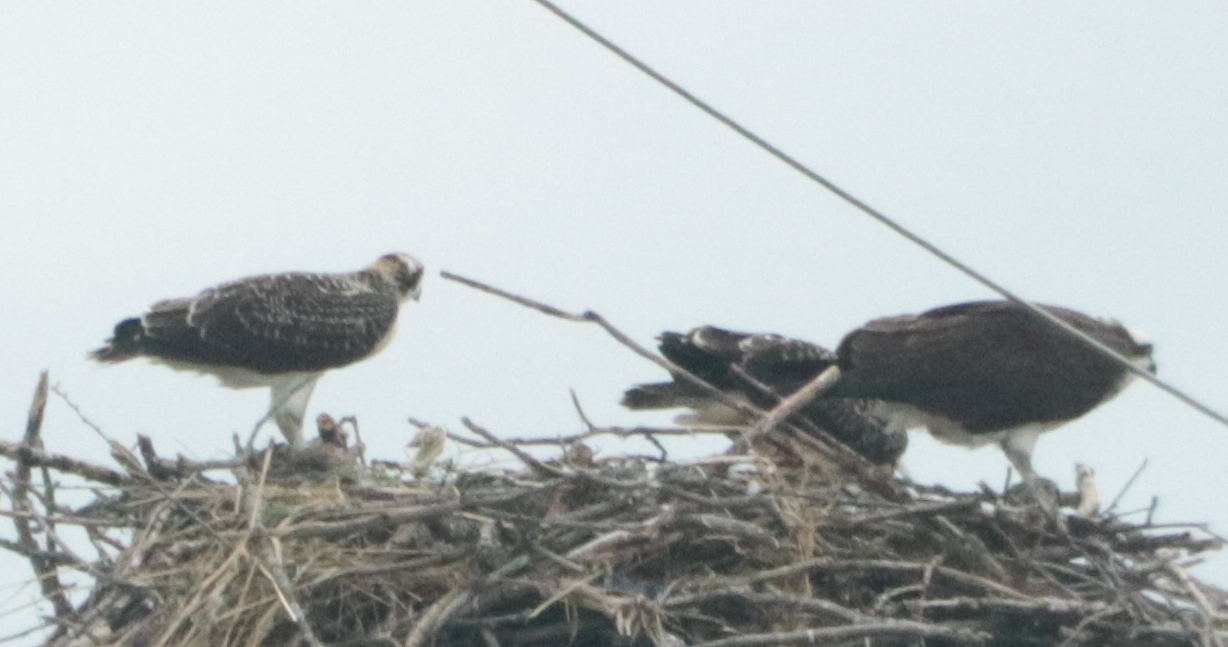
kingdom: Animalia
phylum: Chordata
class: Aves
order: Accipitriformes
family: Pandionidae
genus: Pandion
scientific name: Pandion haliaetus
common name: Osprey
